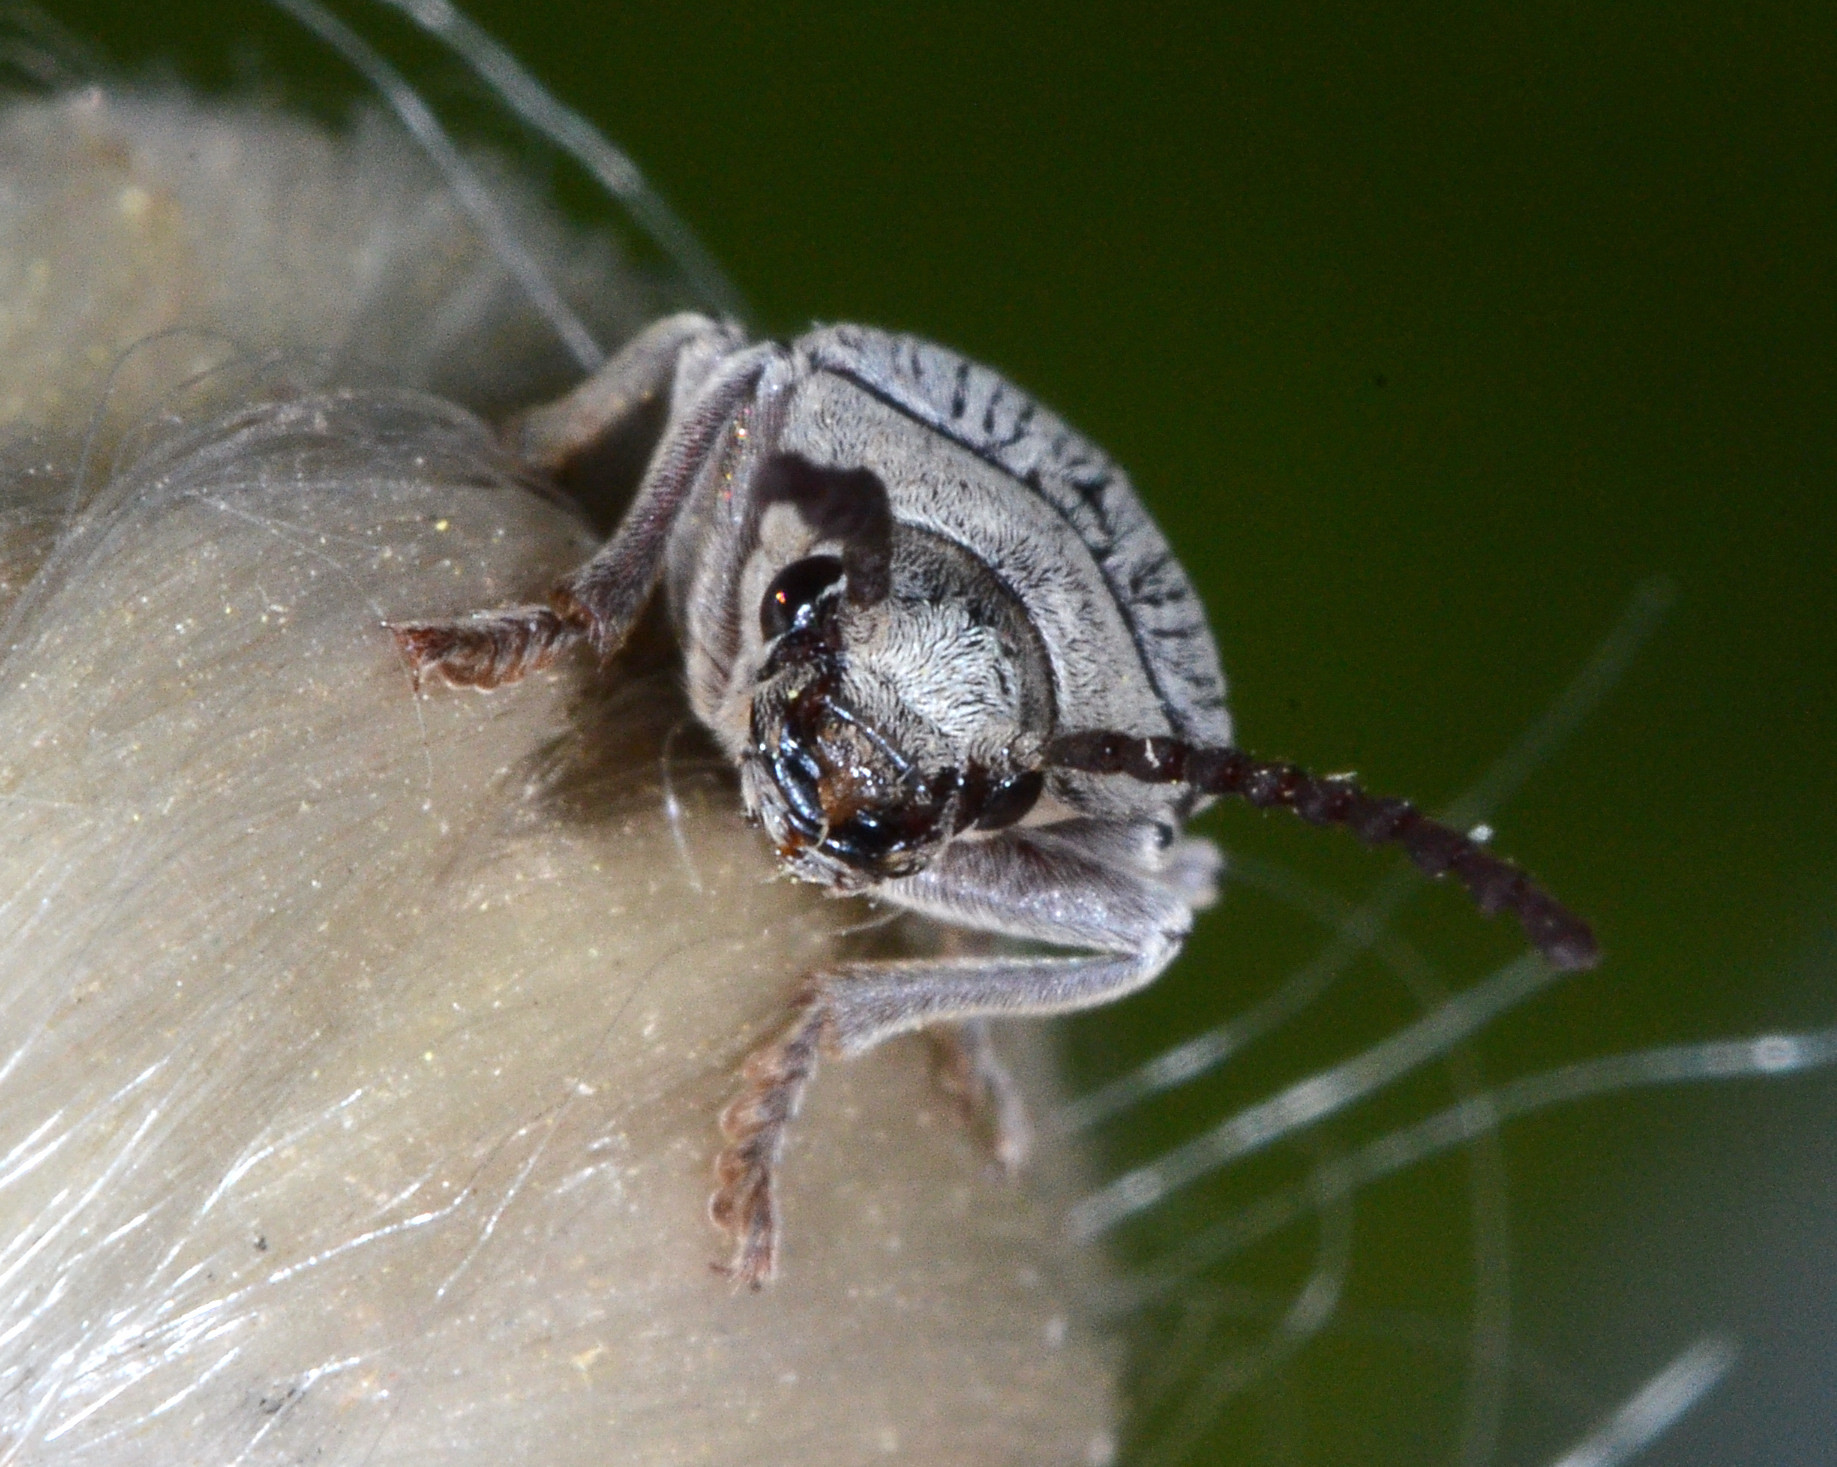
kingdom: Animalia
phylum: Arthropoda
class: Insecta
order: Coleoptera
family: Dascillidae
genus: Dascillus
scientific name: Dascillus davidsoni
